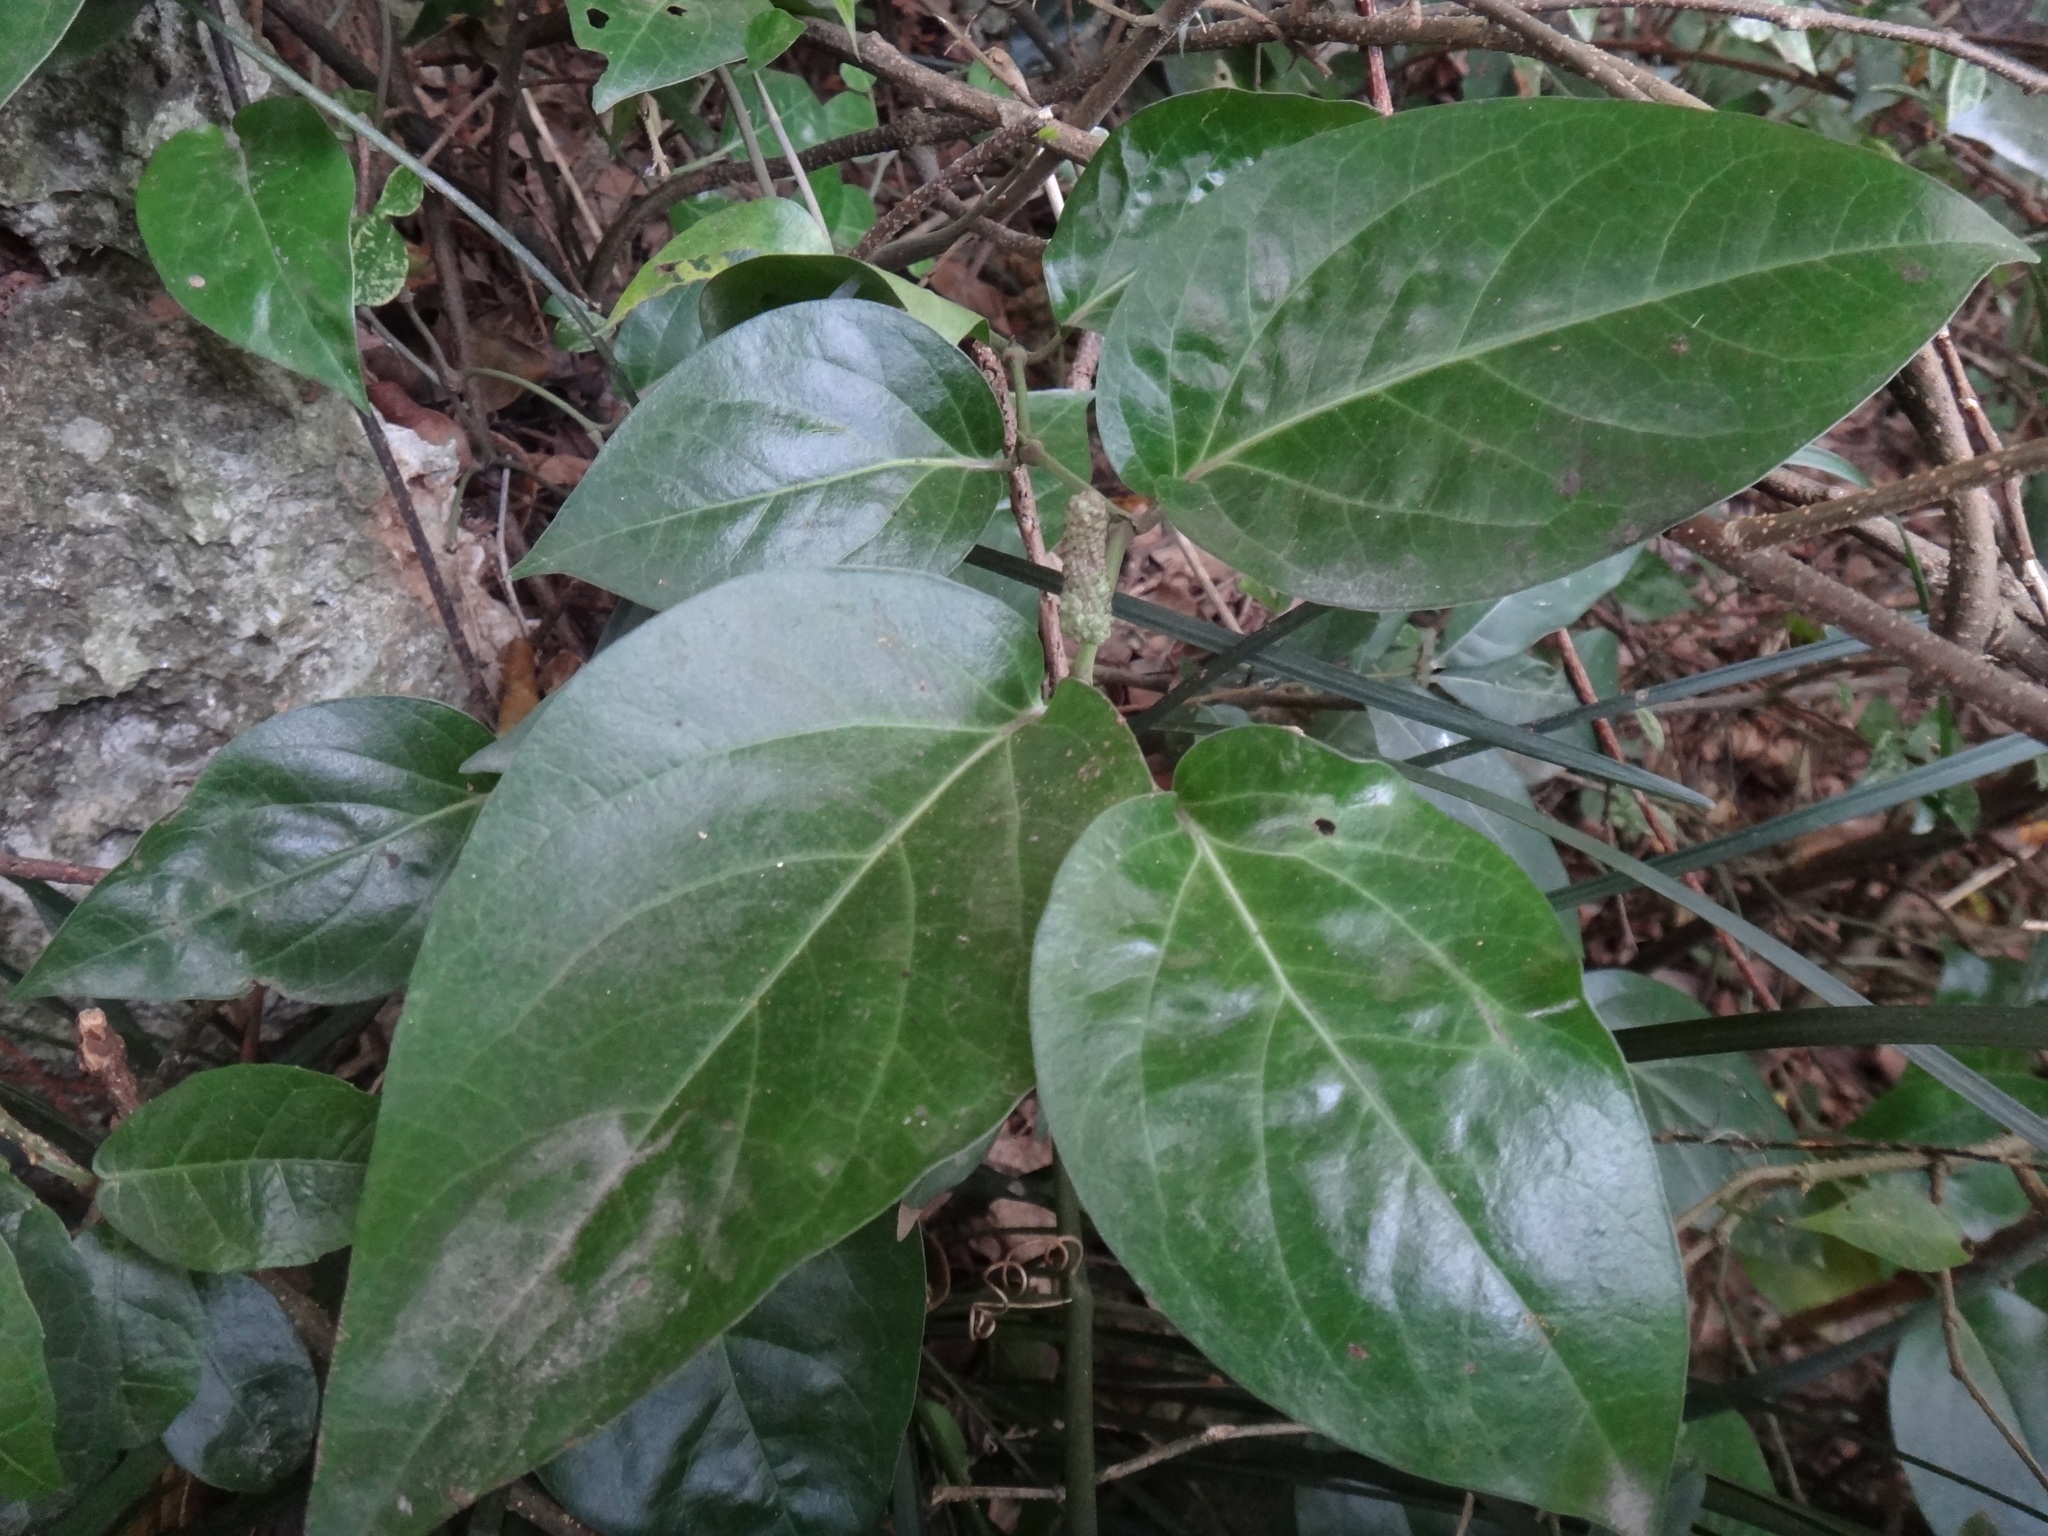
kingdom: Plantae
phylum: Tracheophyta
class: Magnoliopsida
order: Piperales
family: Piperaceae
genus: Piper
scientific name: Piper kawakamii
